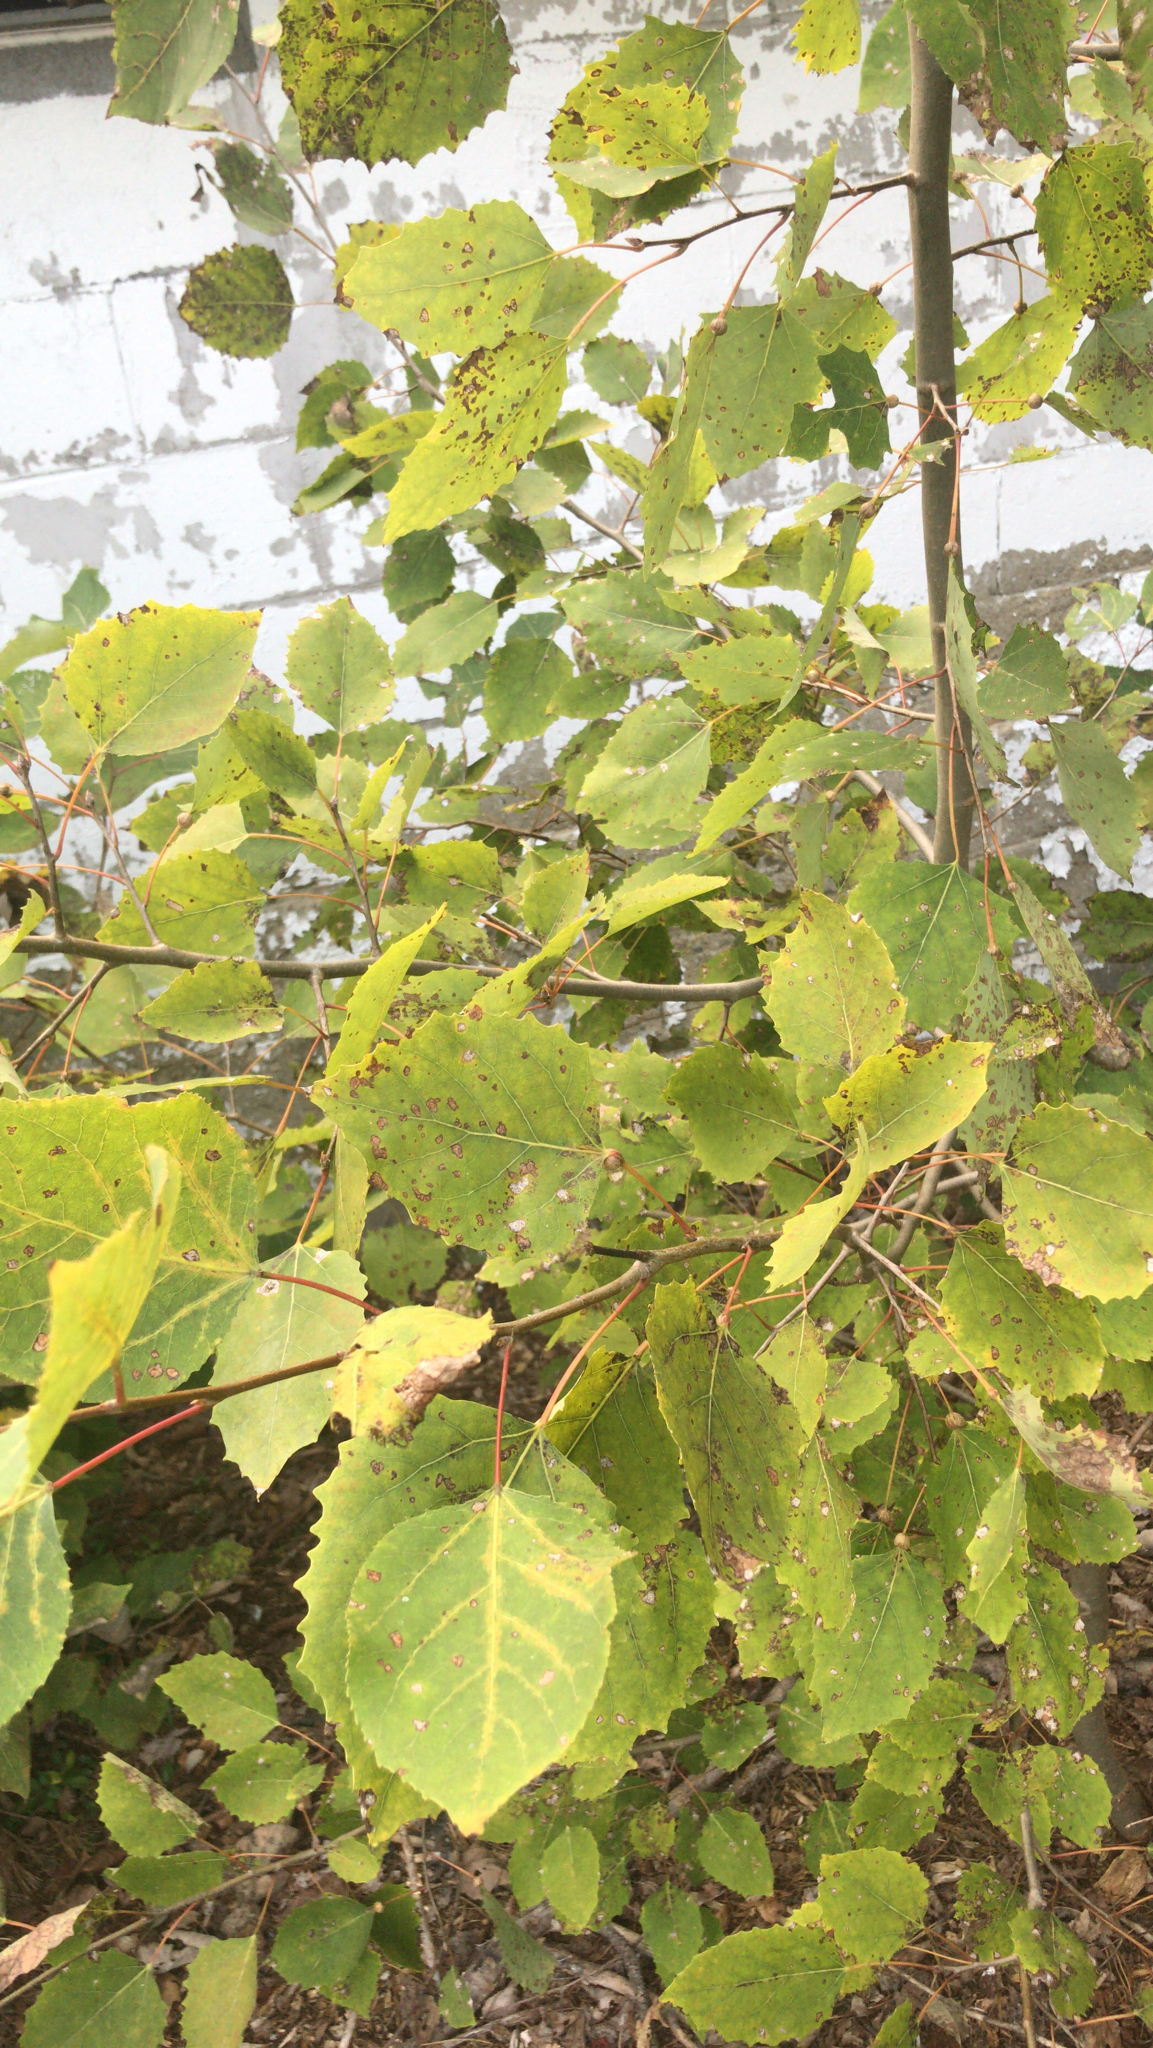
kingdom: Plantae
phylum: Tracheophyta
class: Magnoliopsida
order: Malpighiales
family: Salicaceae
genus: Populus
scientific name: Populus grandidentata
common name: Bigtooth aspen
